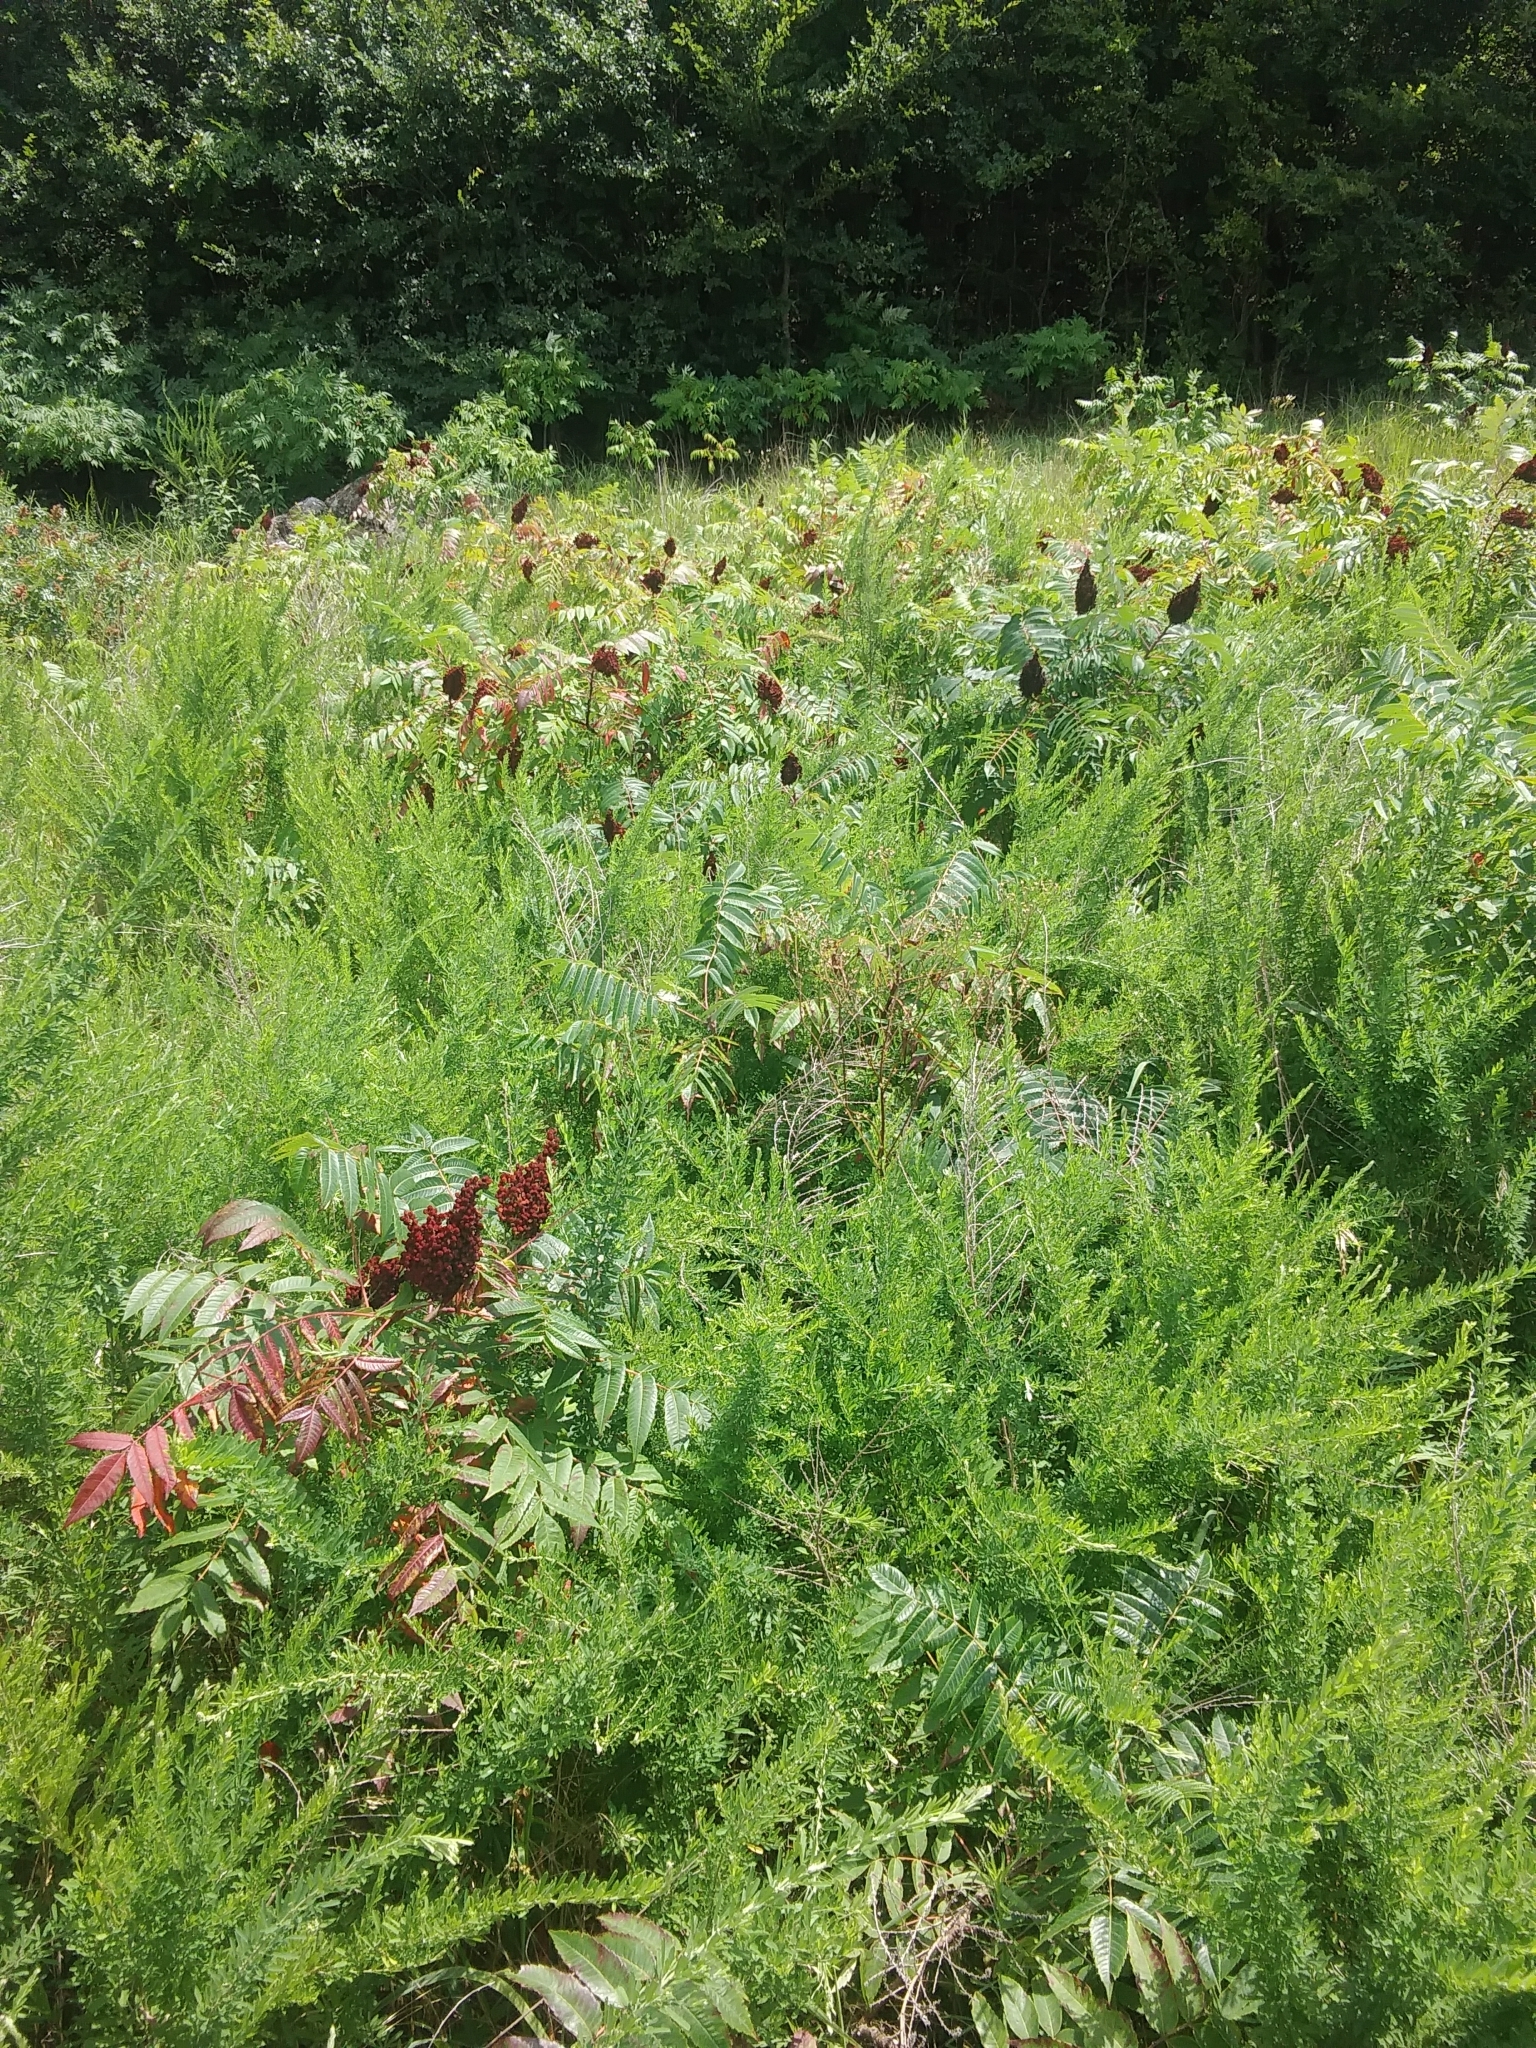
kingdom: Plantae
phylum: Tracheophyta
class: Magnoliopsida
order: Sapindales
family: Anacardiaceae
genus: Rhus
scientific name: Rhus glabra
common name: Scarlet sumac
